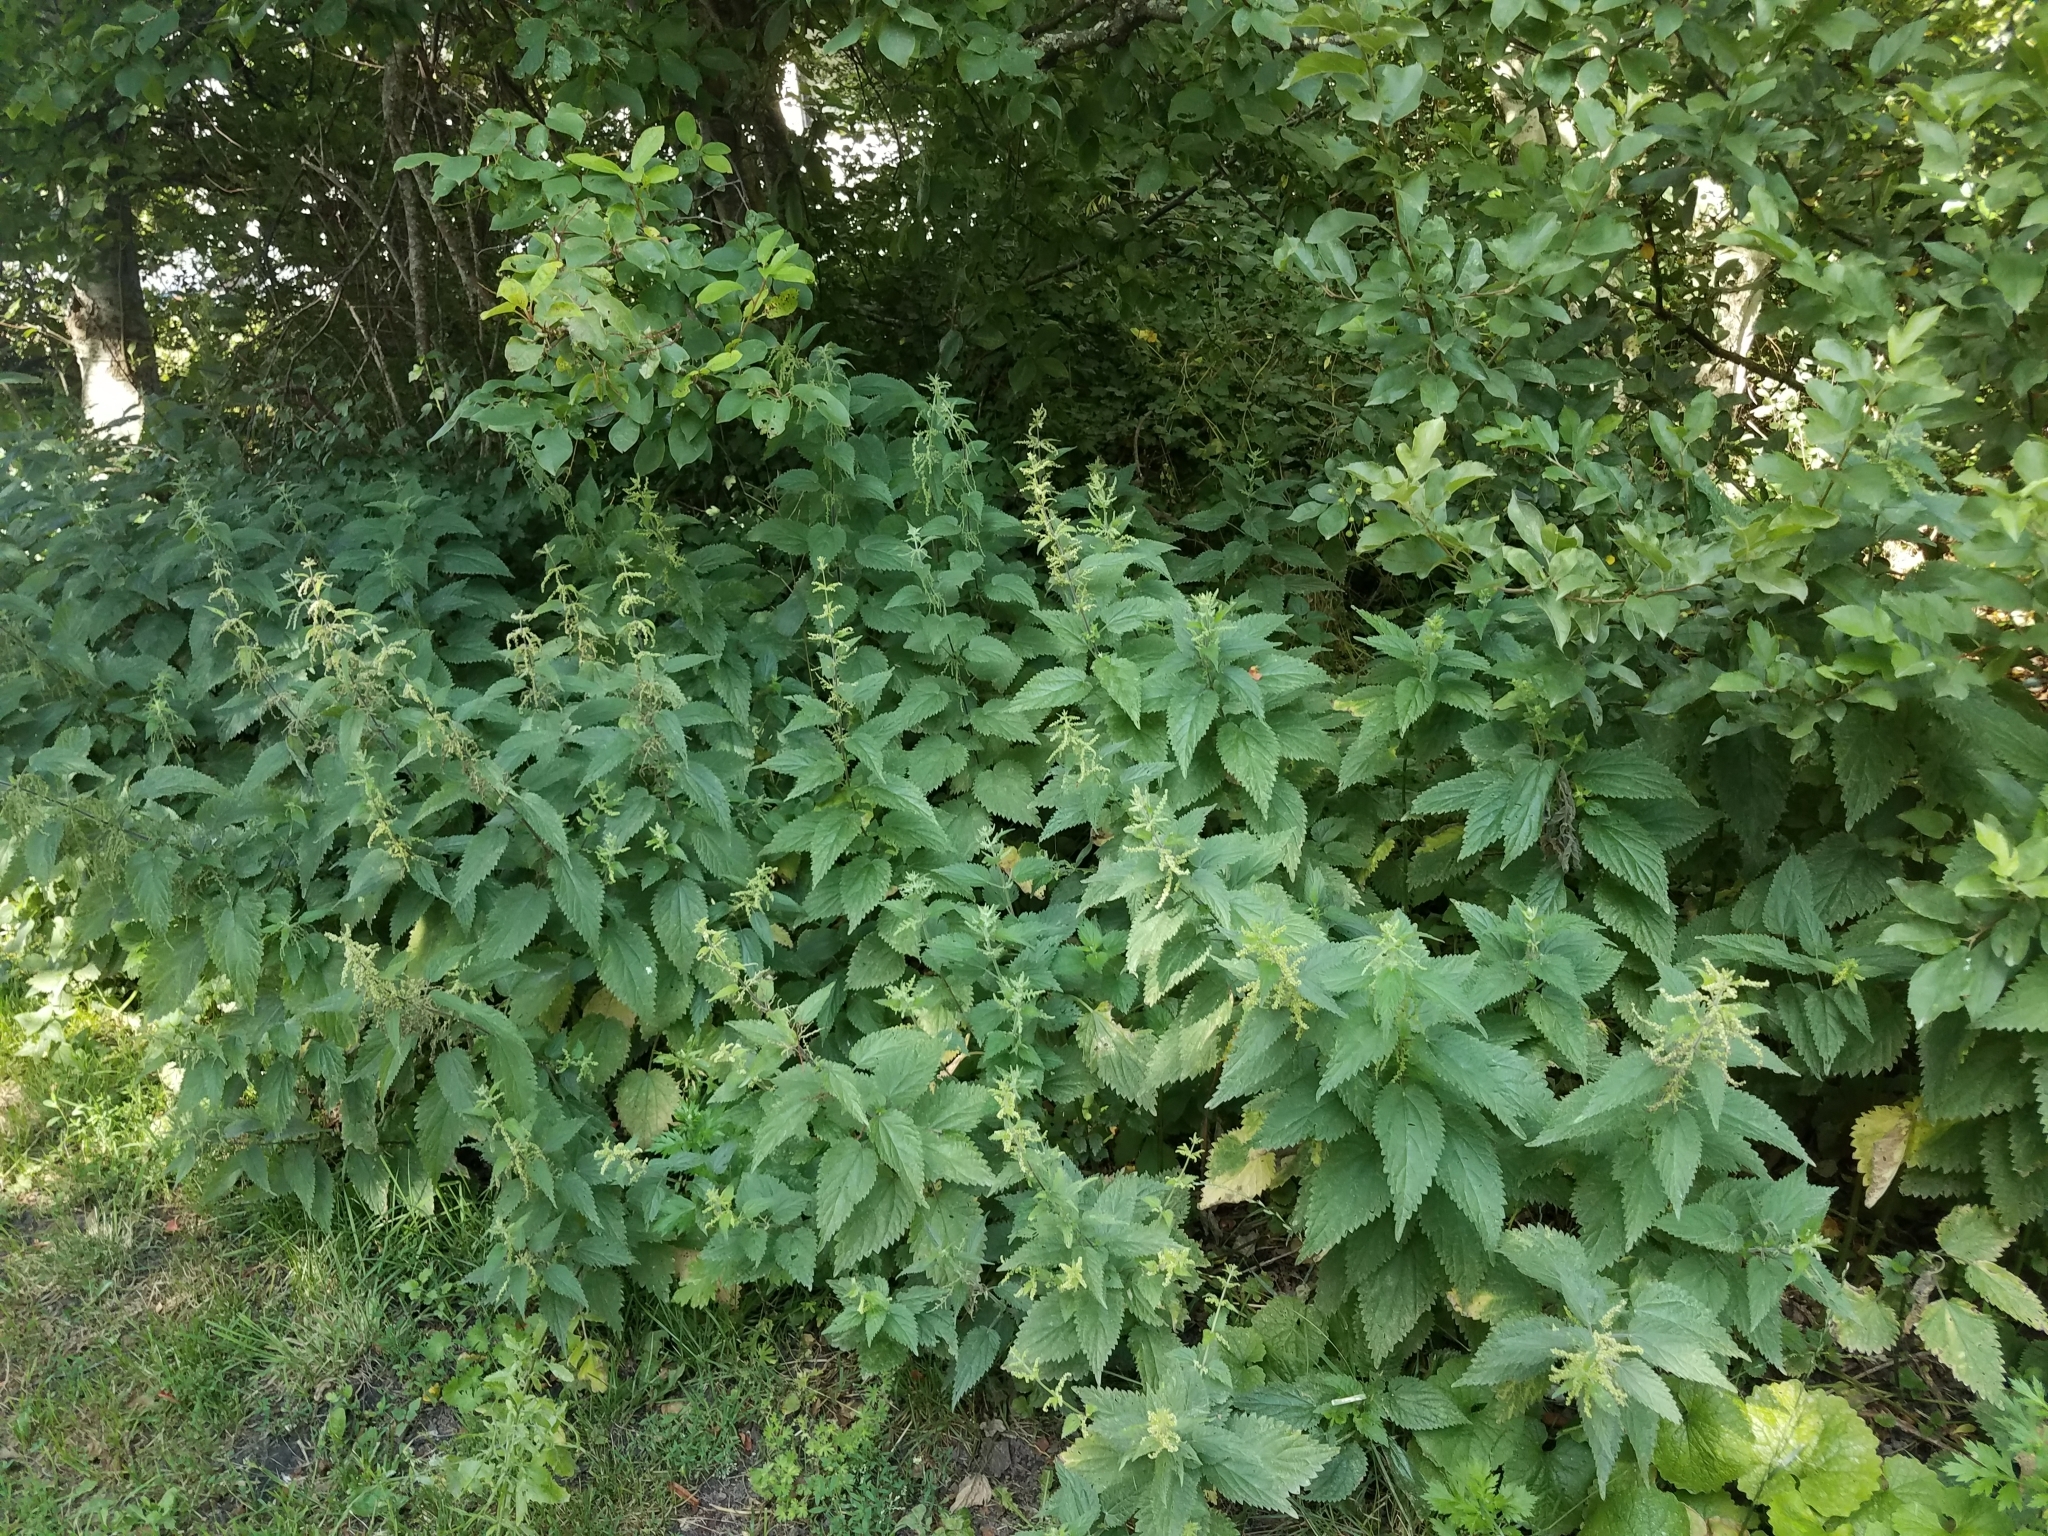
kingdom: Plantae
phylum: Tracheophyta
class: Magnoliopsida
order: Rosales
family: Urticaceae
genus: Urtica
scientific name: Urtica dioica
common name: Common nettle
